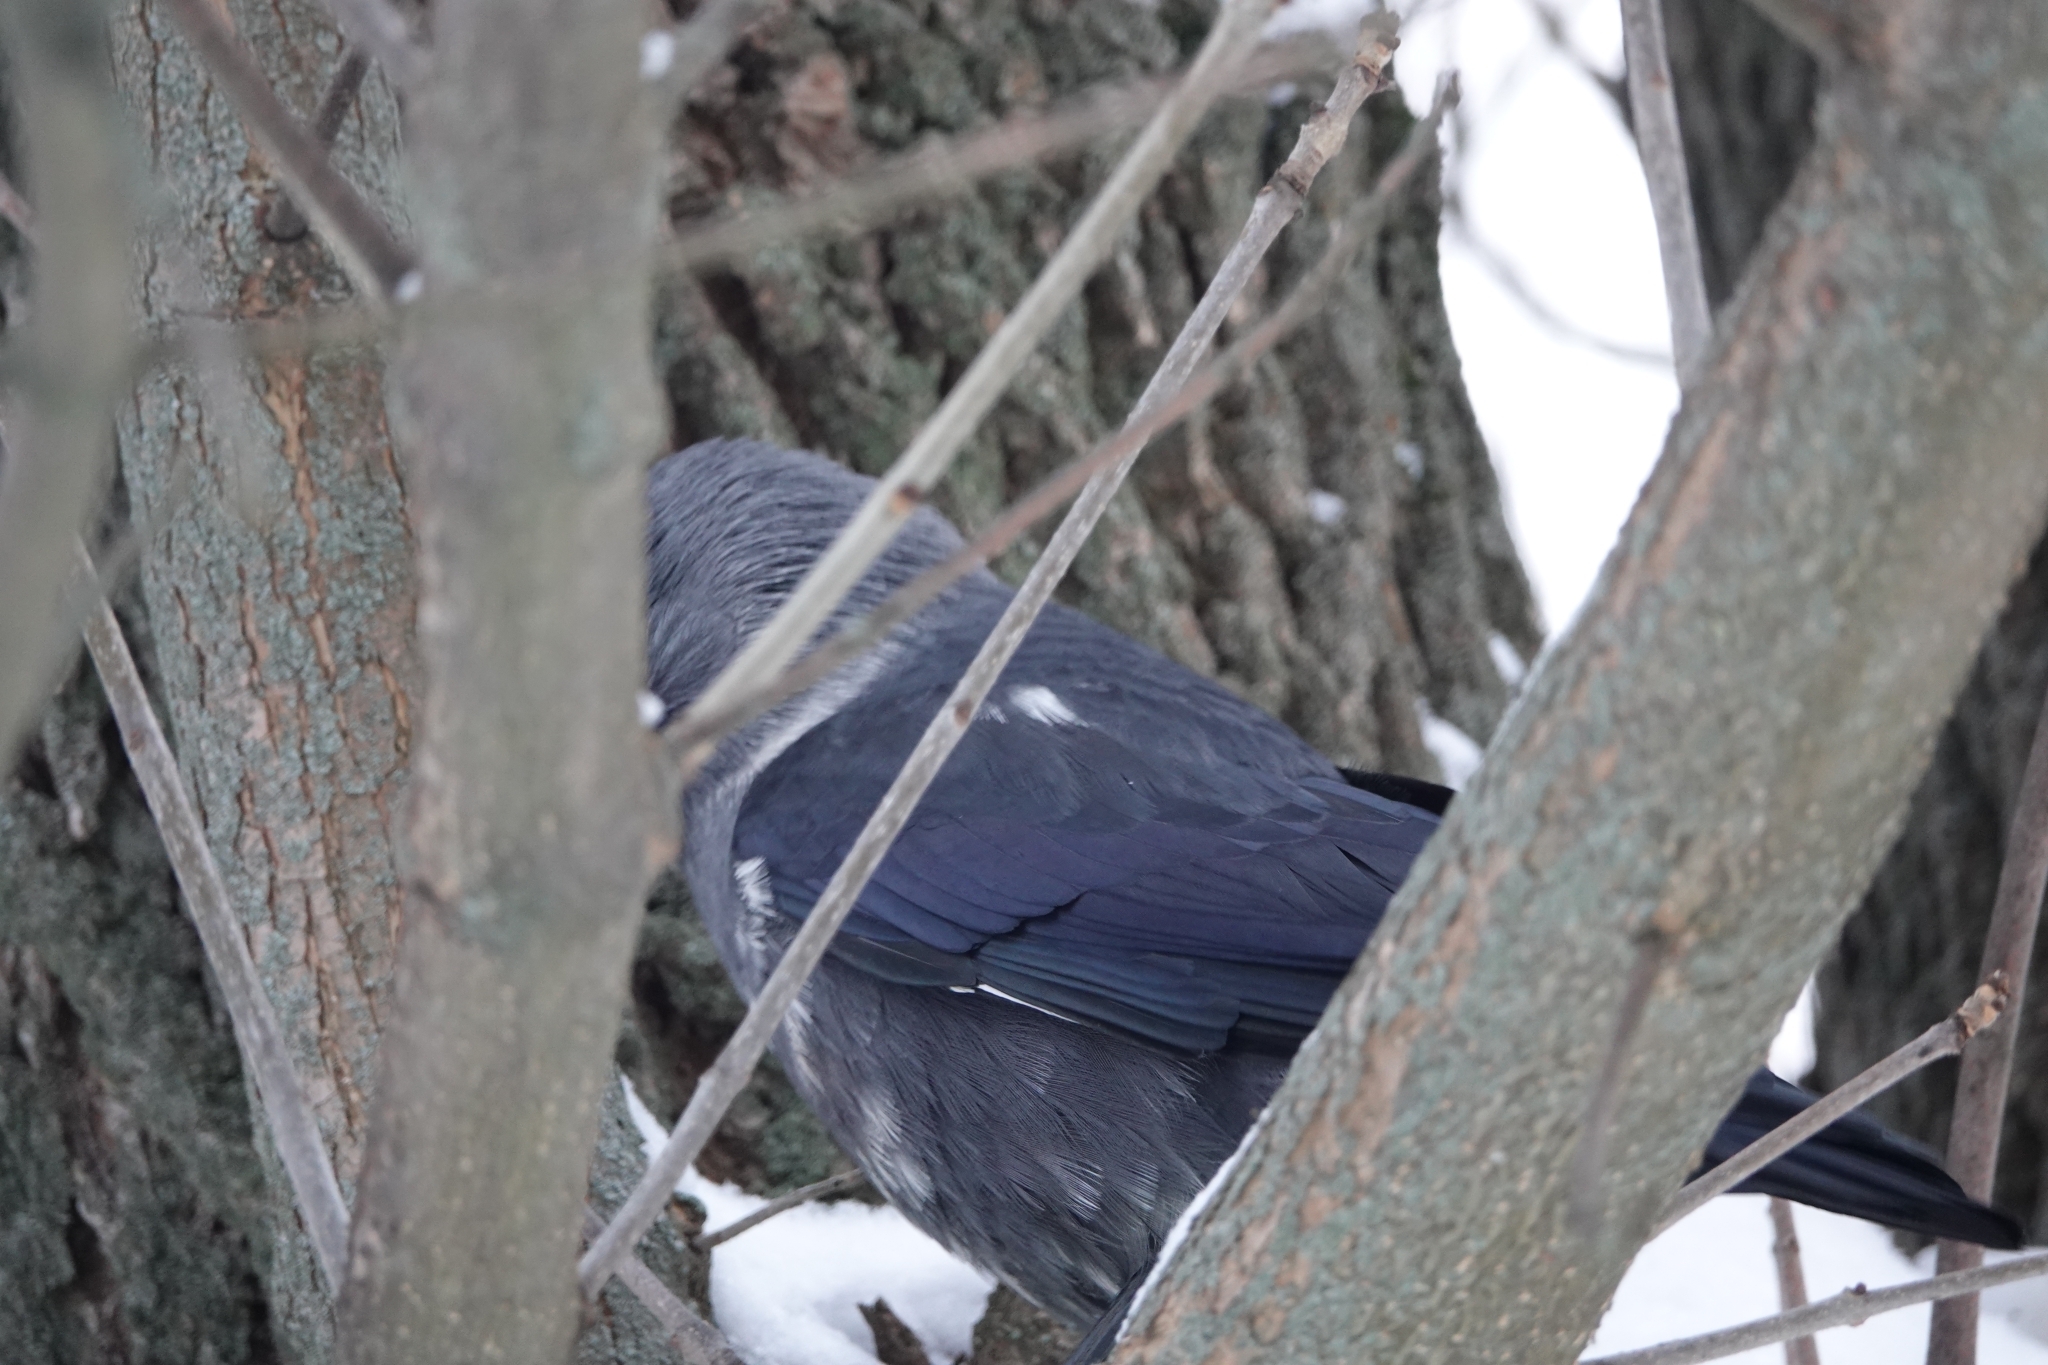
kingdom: Animalia
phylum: Chordata
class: Aves
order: Passeriformes
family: Corvidae
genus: Coloeus
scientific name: Coloeus monedula
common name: Western jackdaw
